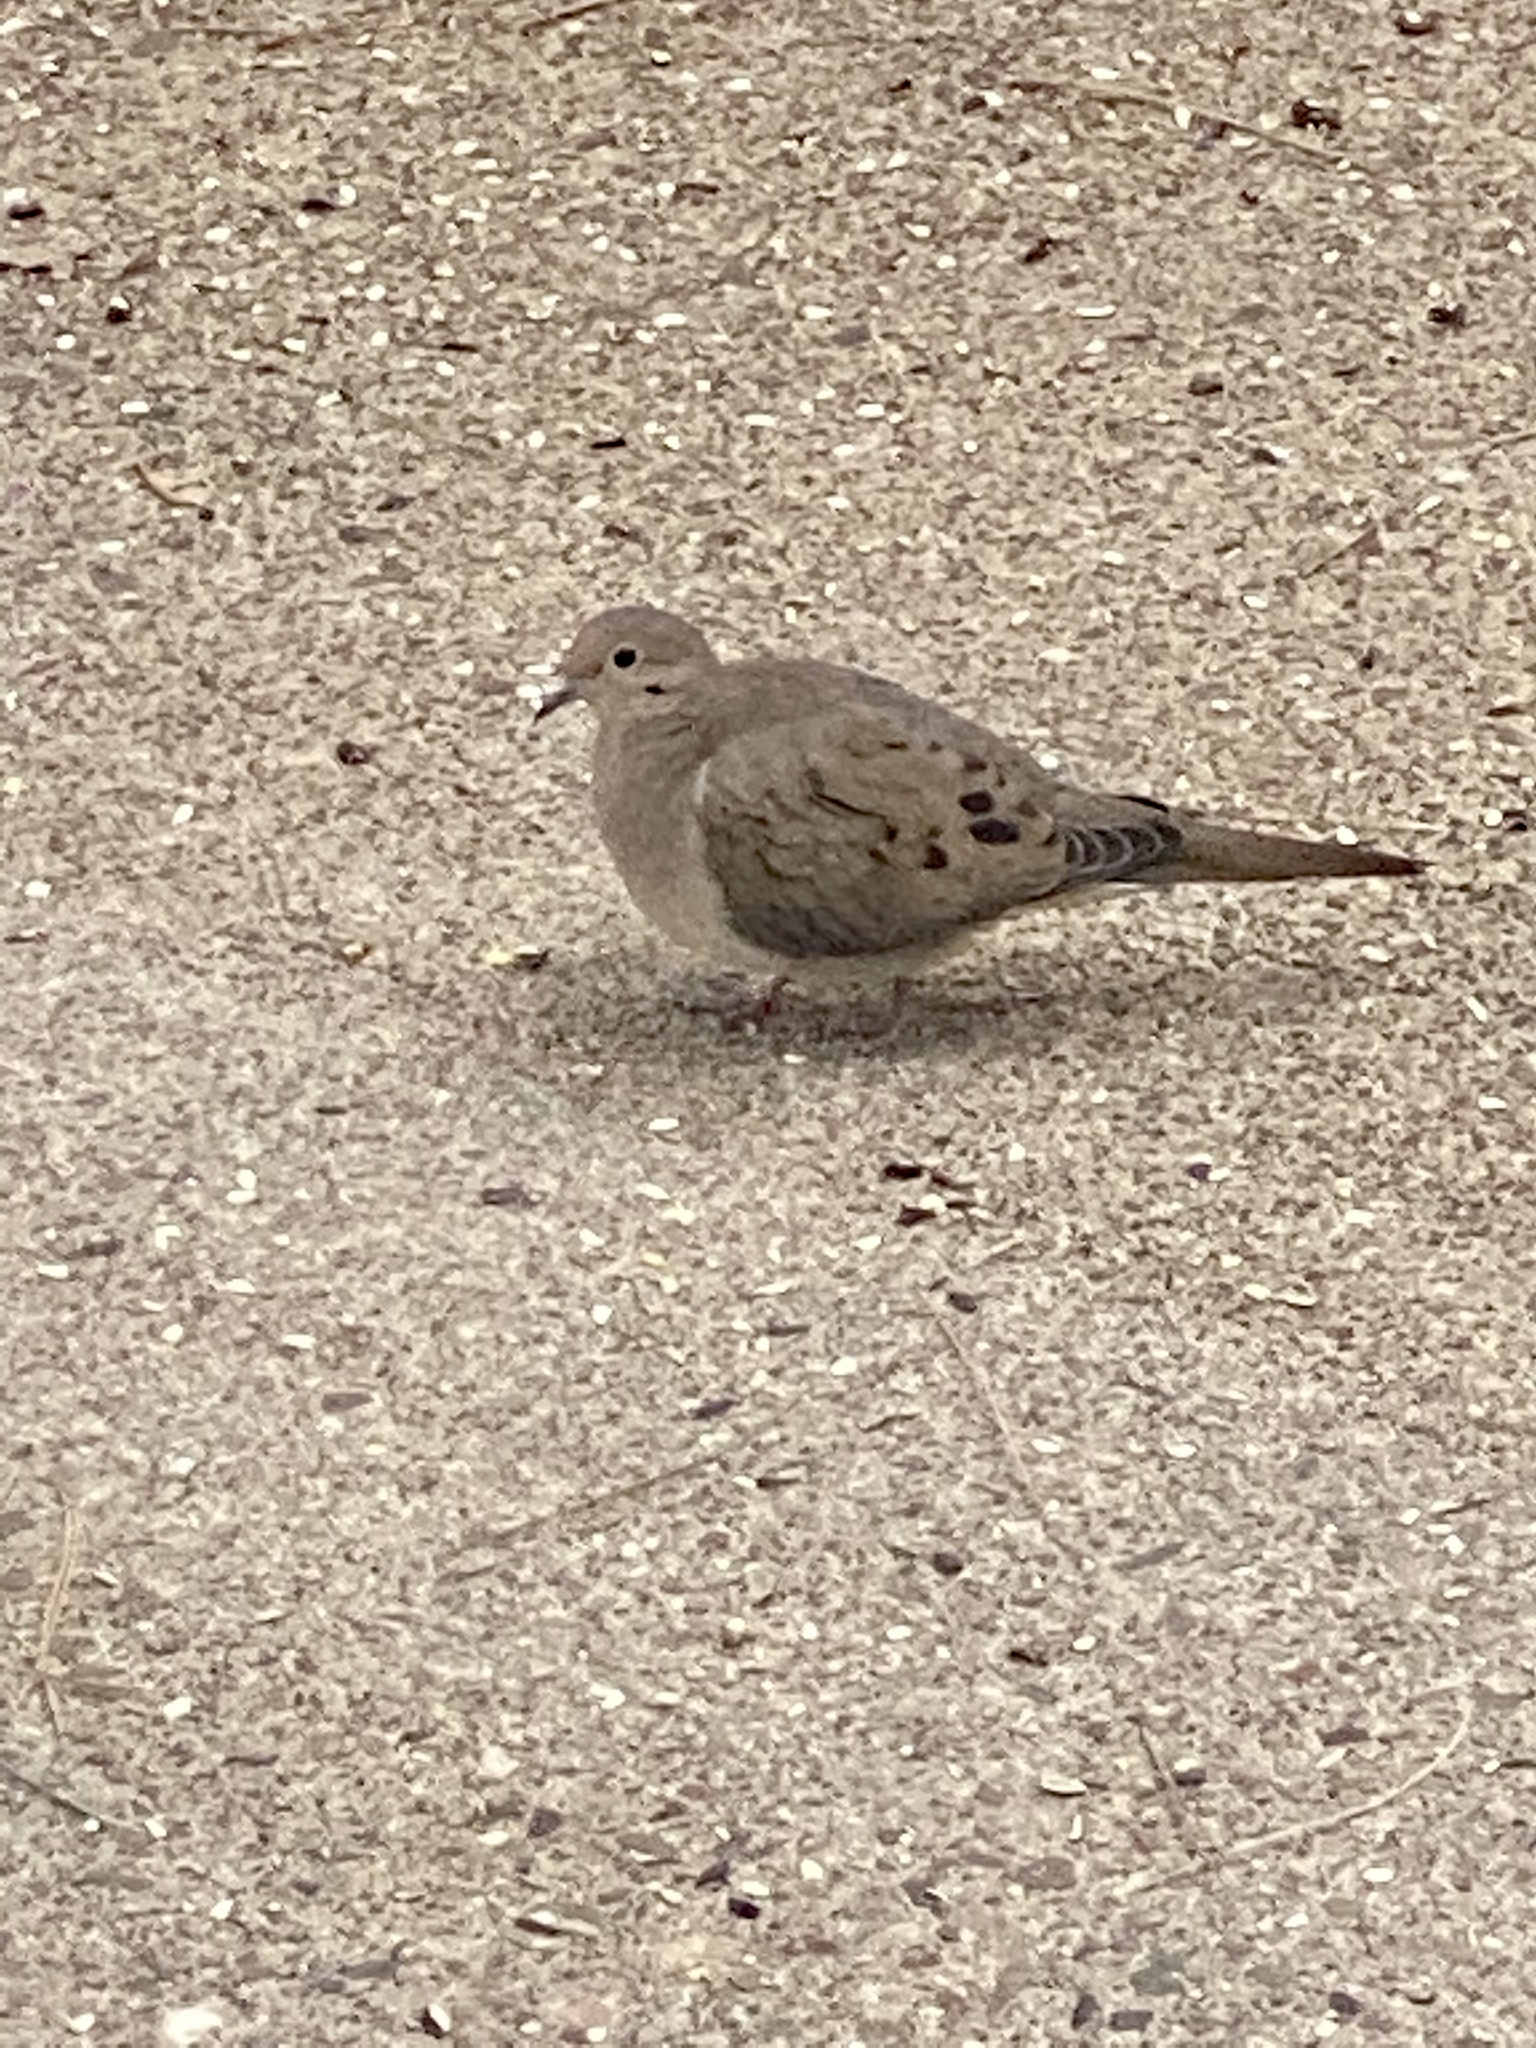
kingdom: Animalia
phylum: Chordata
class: Aves
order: Columbiformes
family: Columbidae
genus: Zenaida
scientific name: Zenaida macroura
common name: Mourning dove
